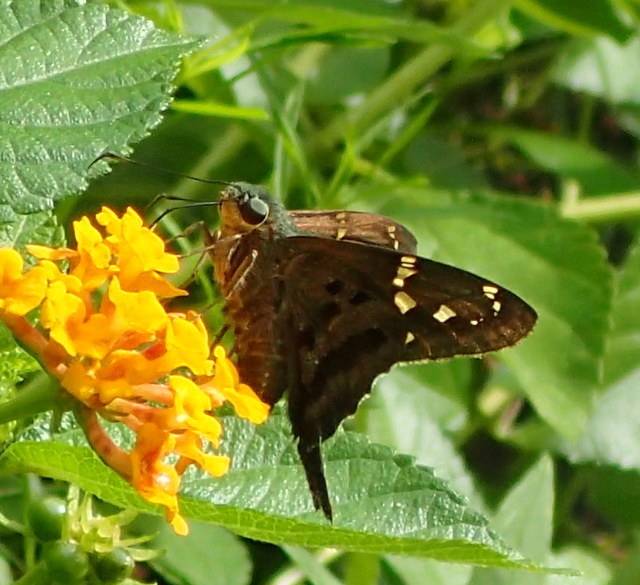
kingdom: Animalia
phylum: Arthropoda
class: Insecta
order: Lepidoptera
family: Hesperiidae
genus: Urbanus
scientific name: Urbanus proteus
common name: Long-tailed skipper
